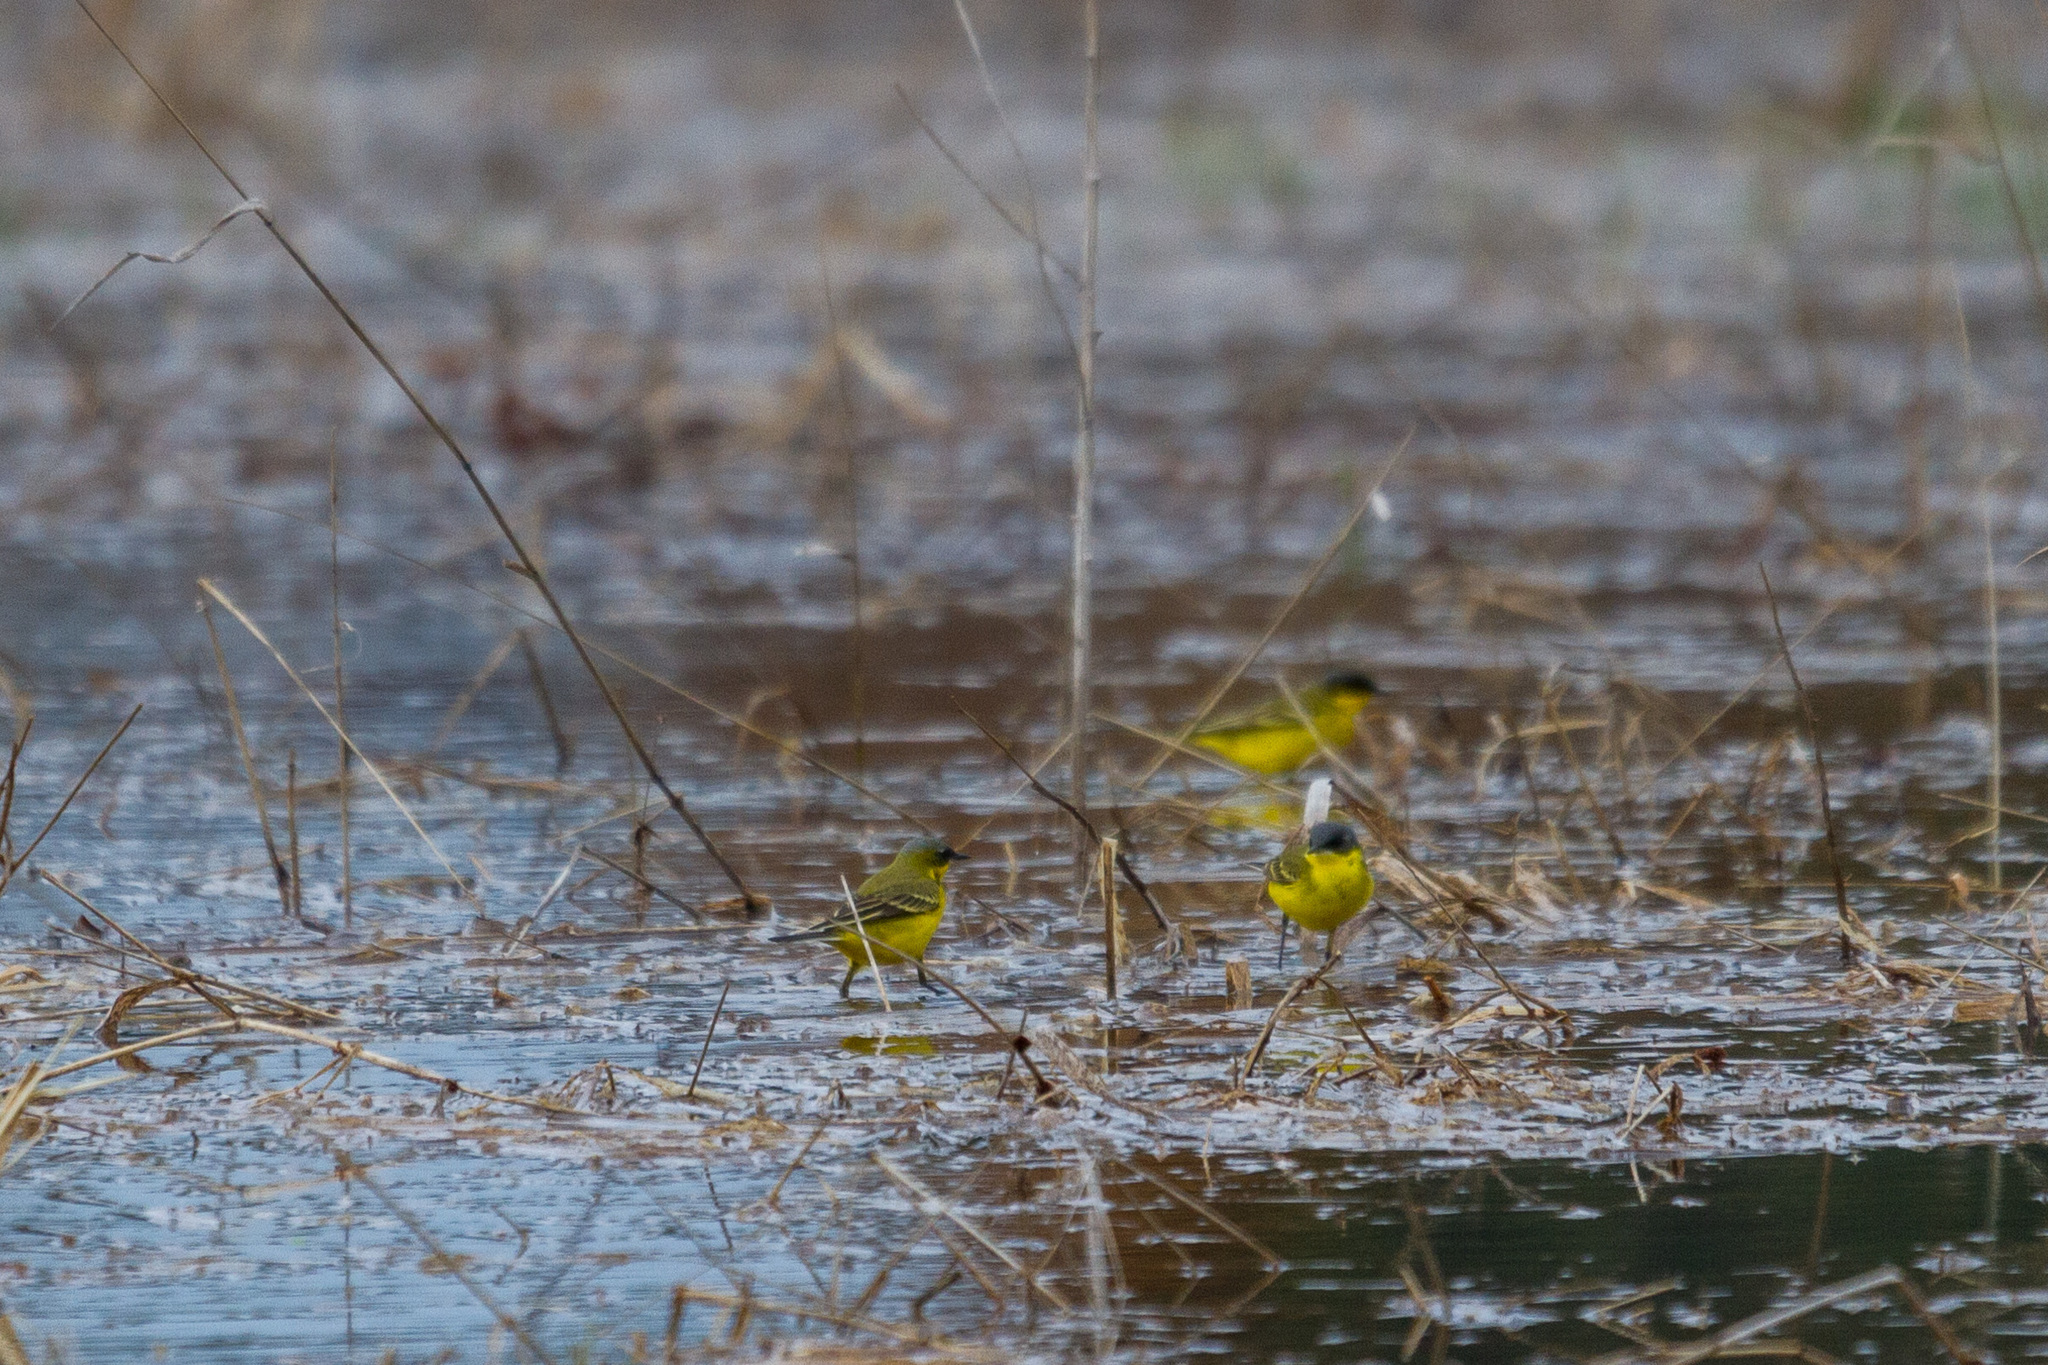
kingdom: Animalia
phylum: Chordata
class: Aves
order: Passeriformes
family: Motacillidae
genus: Motacilla
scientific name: Motacilla flava
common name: Western yellow wagtail
